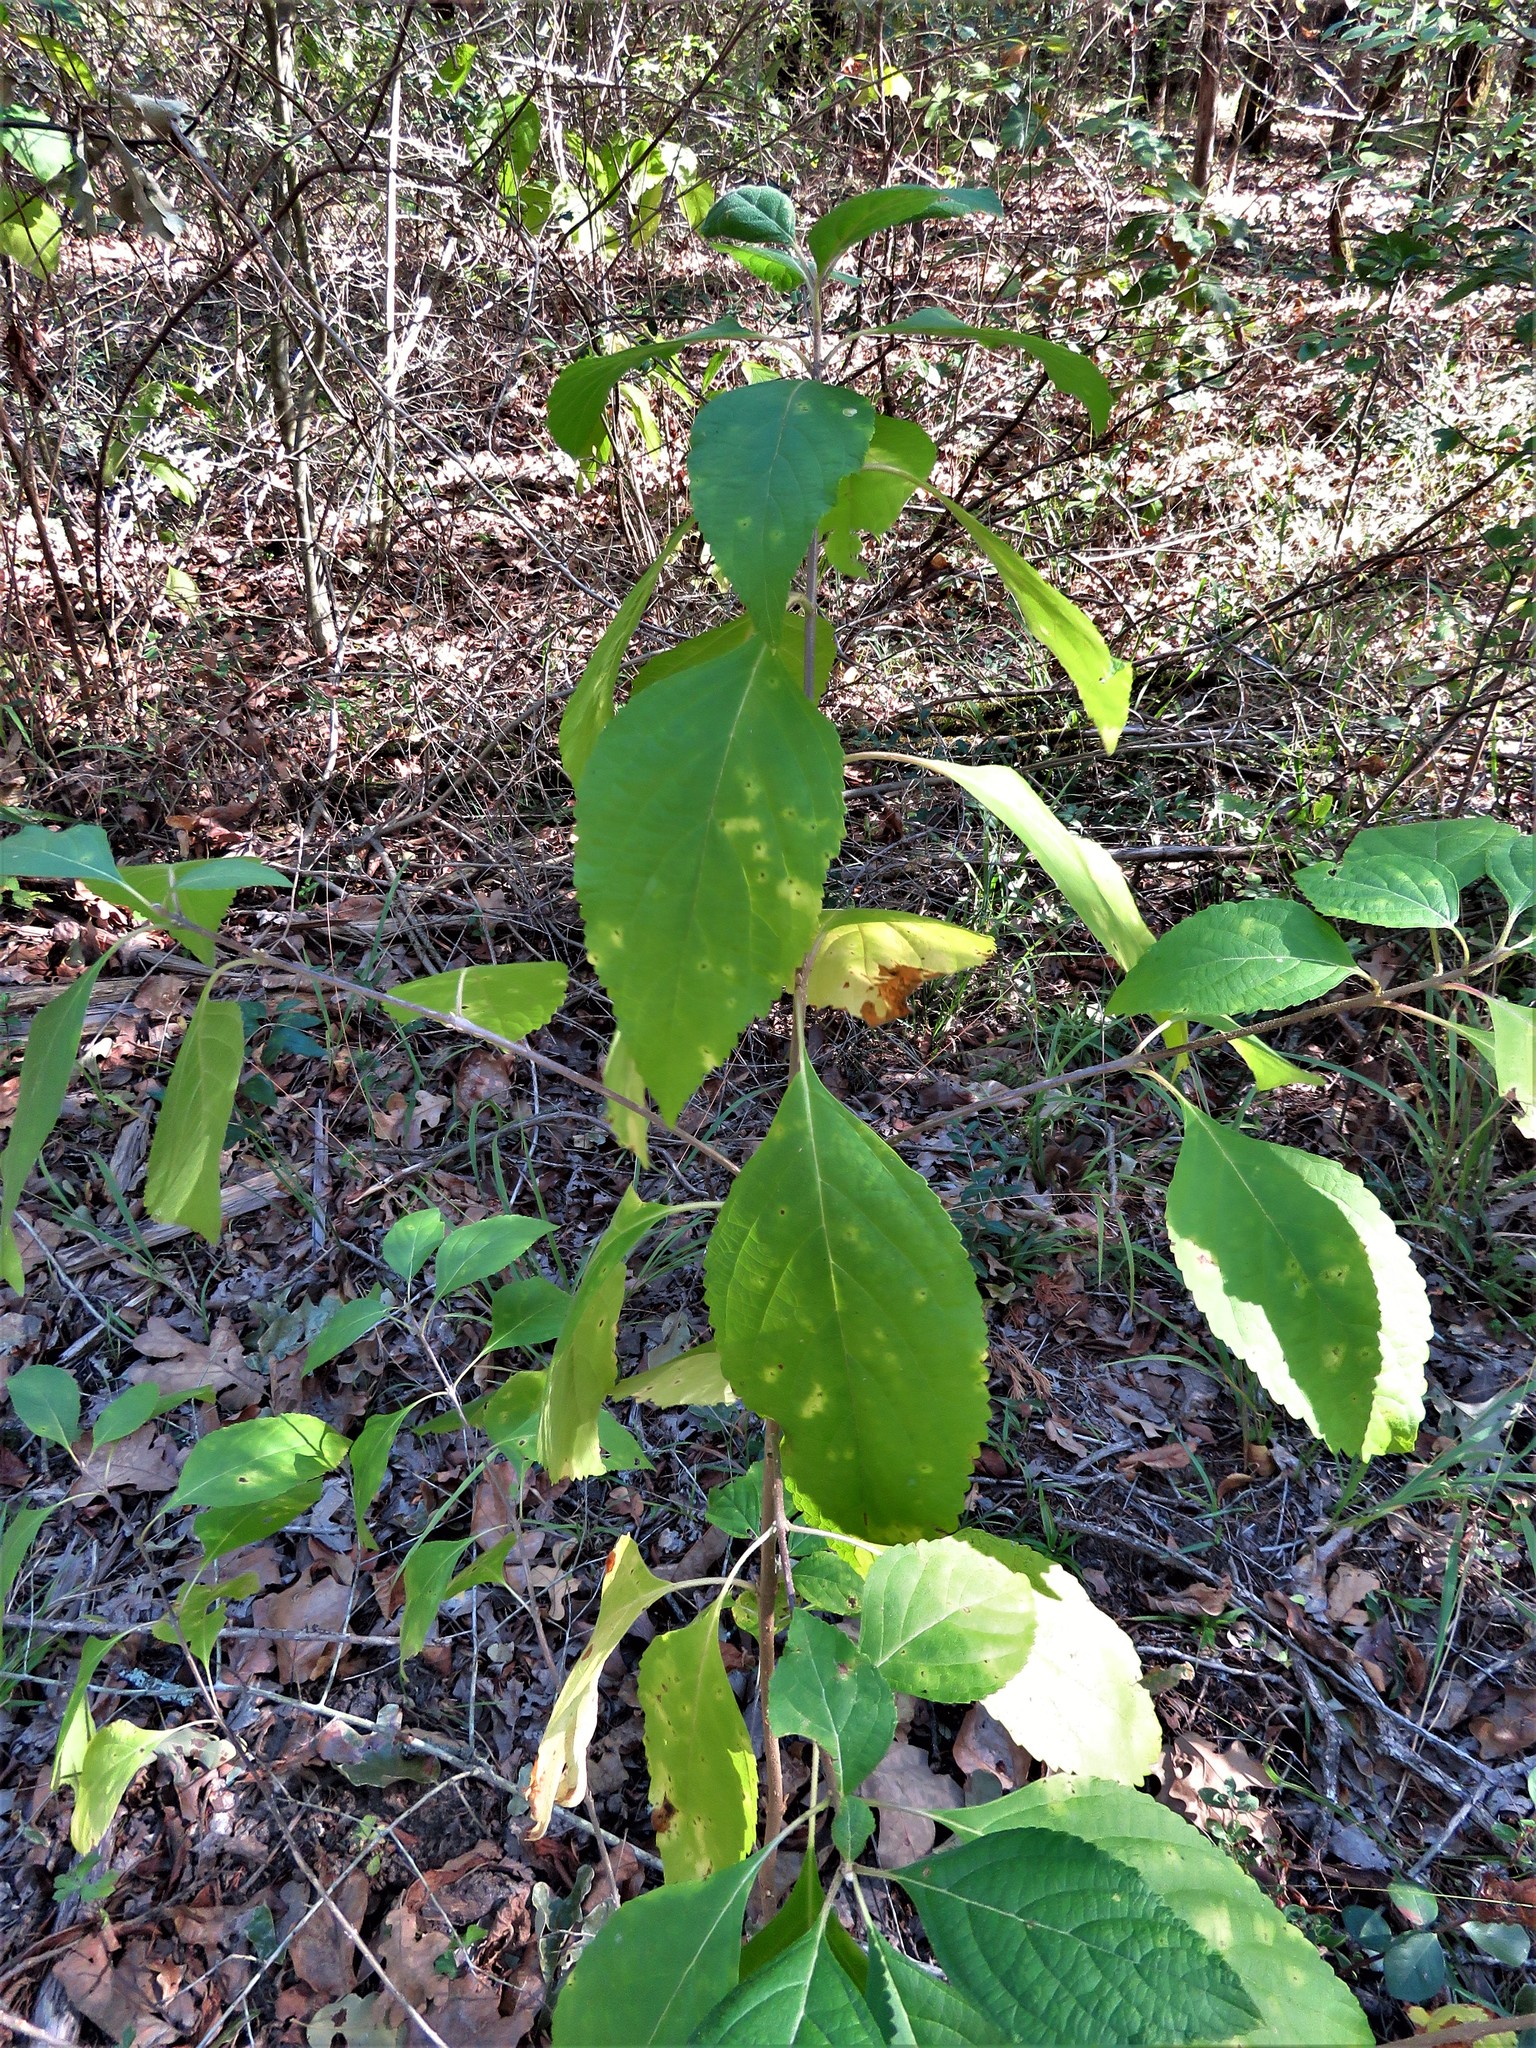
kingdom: Plantae
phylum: Tracheophyta
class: Magnoliopsida
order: Lamiales
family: Lamiaceae
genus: Callicarpa
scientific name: Callicarpa americana
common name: American beautyberry
